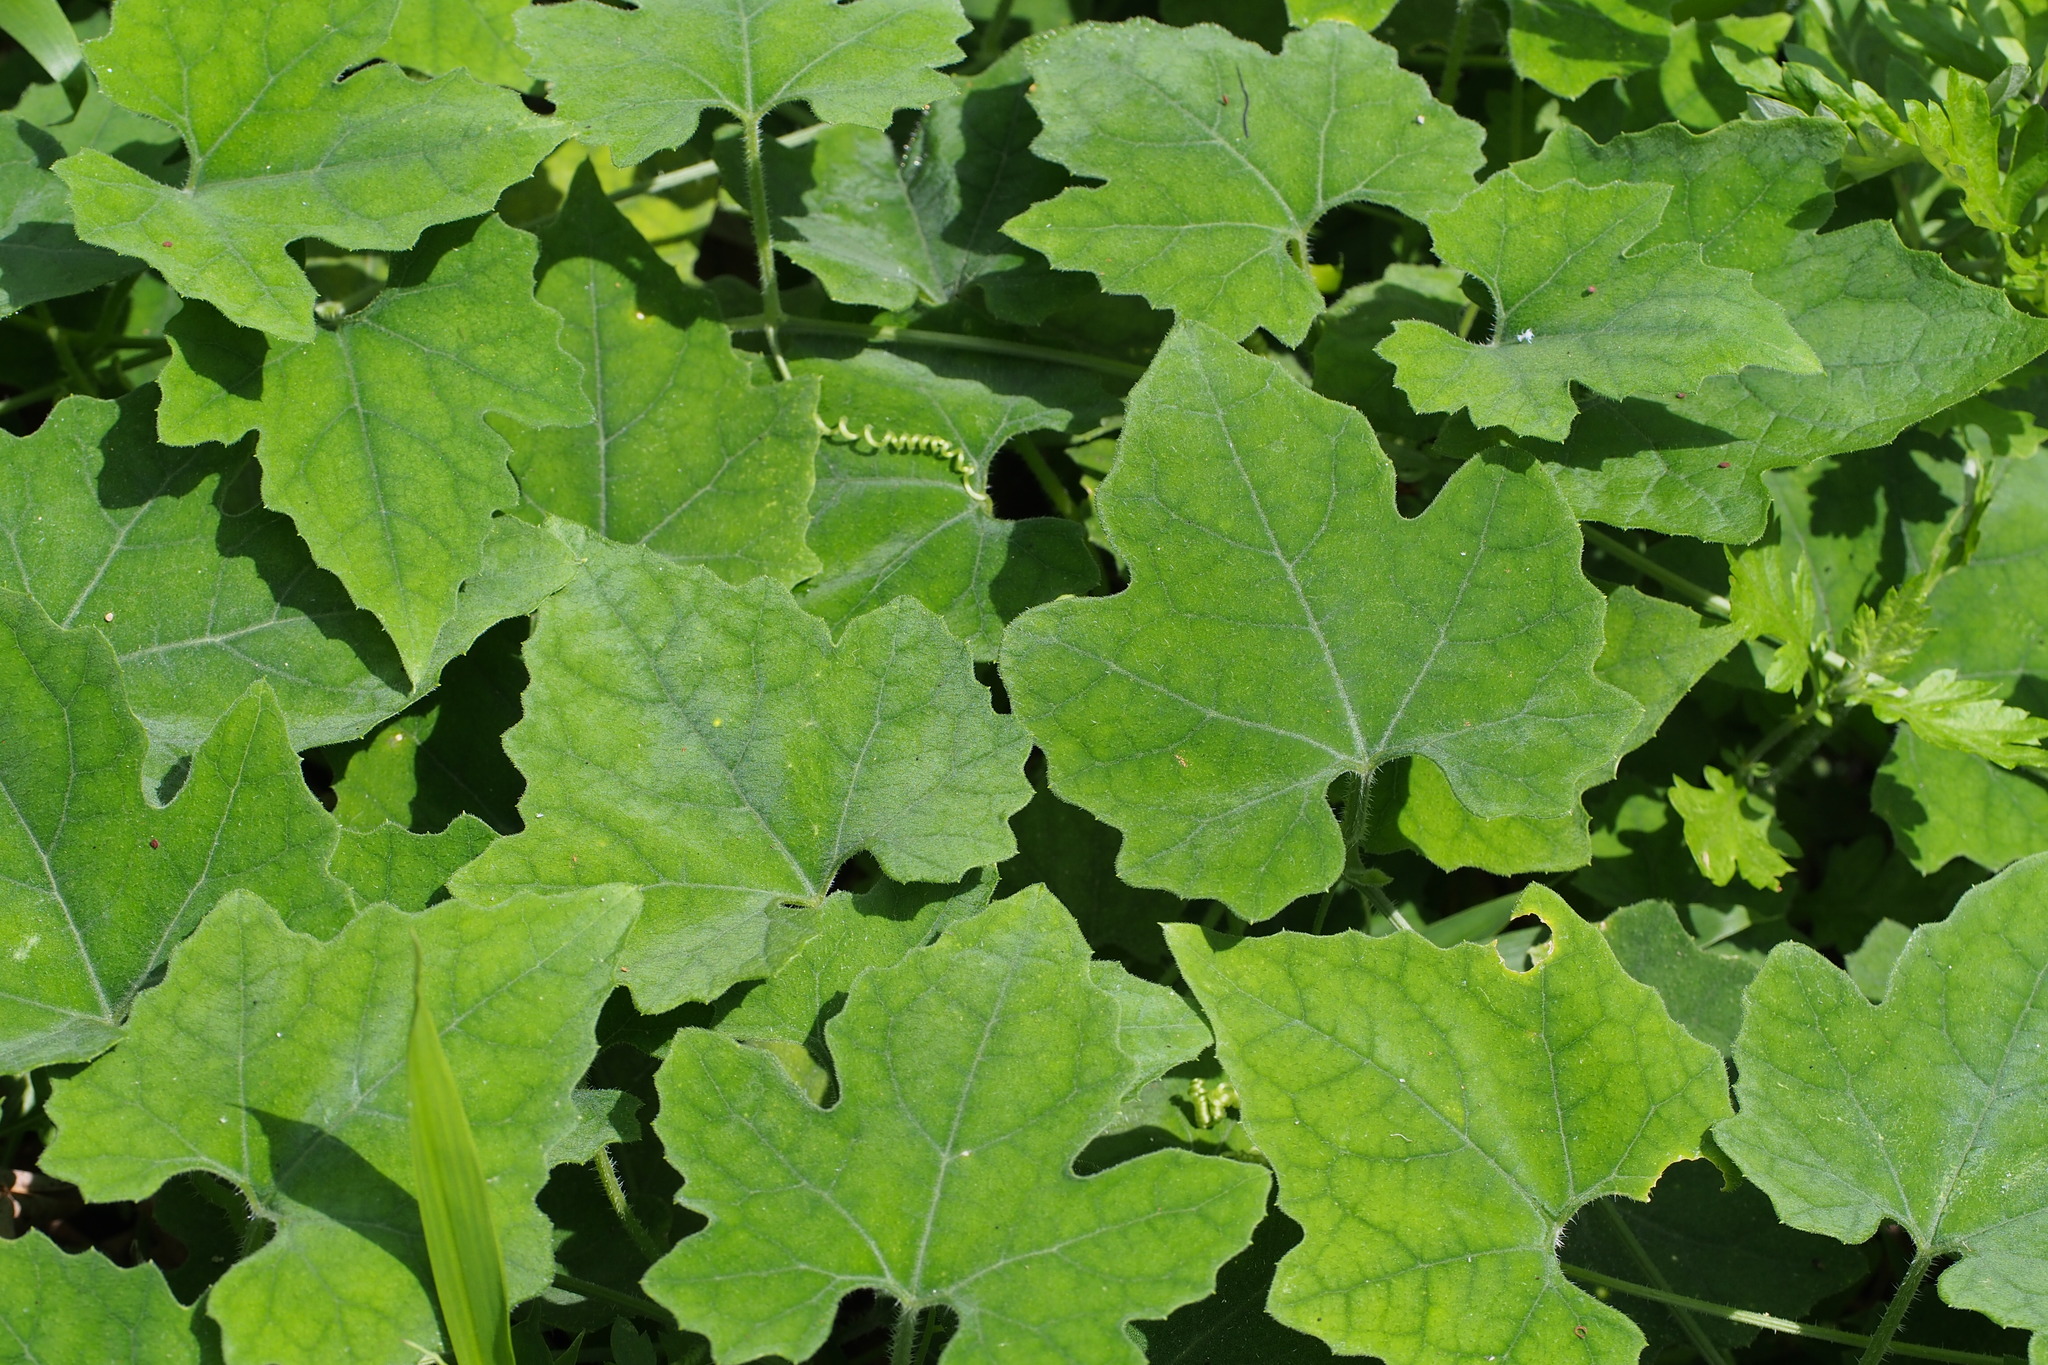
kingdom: Plantae
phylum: Tracheophyta
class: Magnoliopsida
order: Cucurbitales
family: Cucurbitaceae
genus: Trichosanthes
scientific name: Trichosanthes cucumeroides
